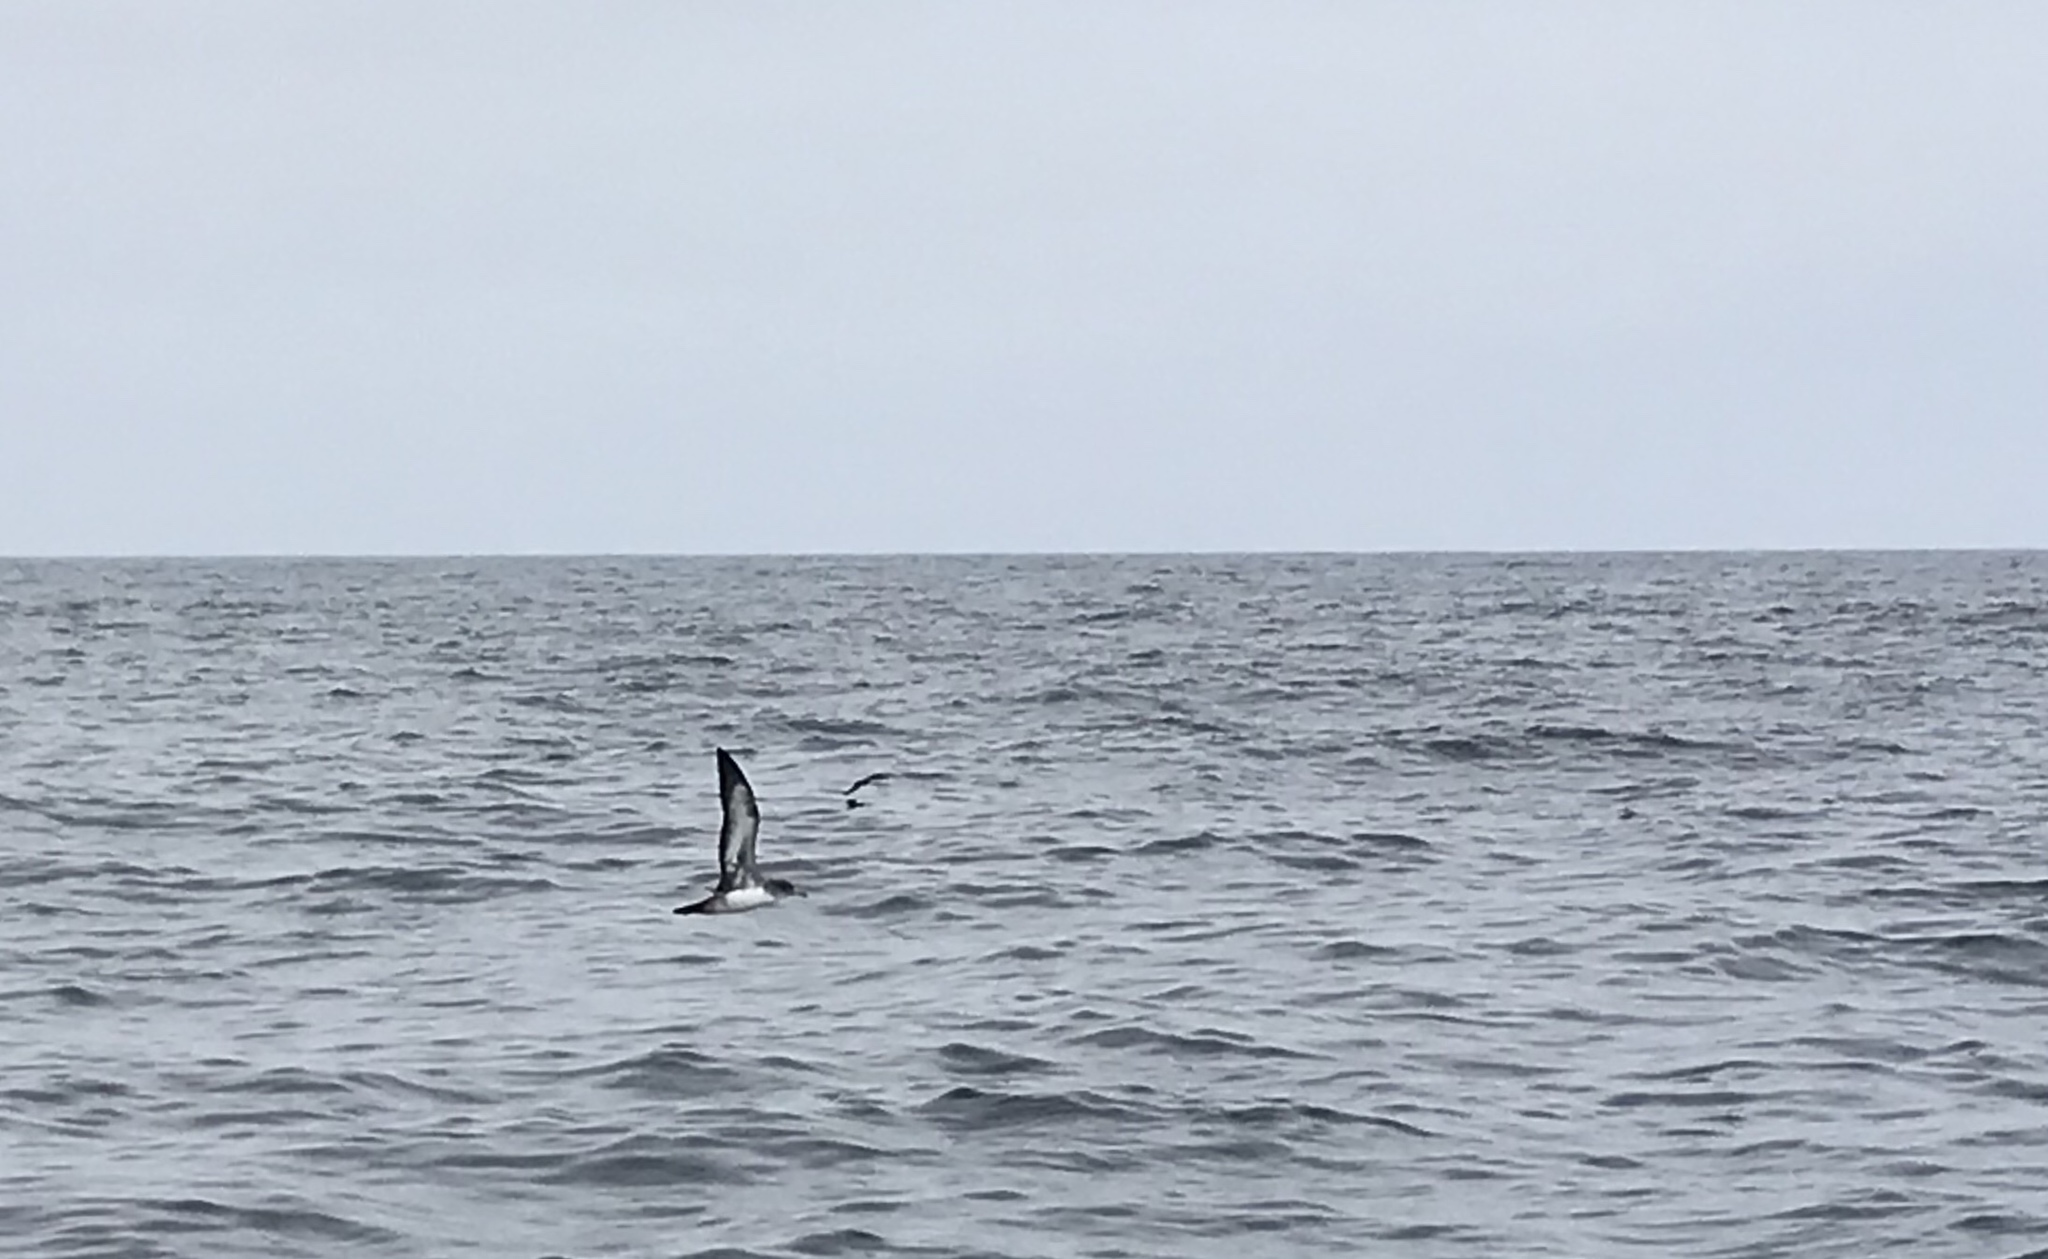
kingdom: Animalia
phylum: Chordata
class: Aves
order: Procellariiformes
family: Procellariidae
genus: Puffinus
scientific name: Puffinus creatopus
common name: Pink-footed shearwater
